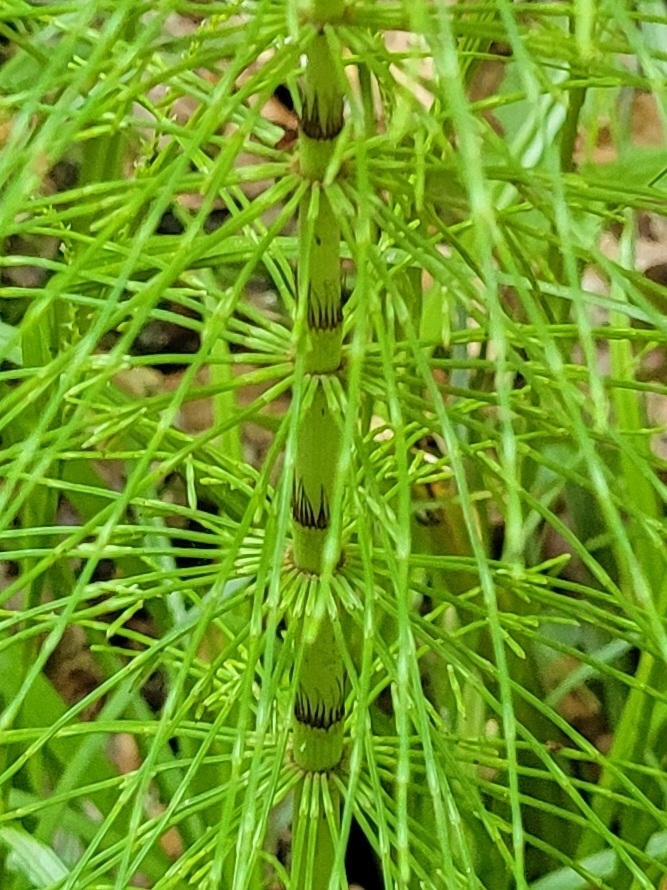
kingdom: Plantae
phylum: Tracheophyta
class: Polypodiopsida
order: Equisetales
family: Equisetaceae
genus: Equisetum
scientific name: Equisetum telmateia
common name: Great horsetail
